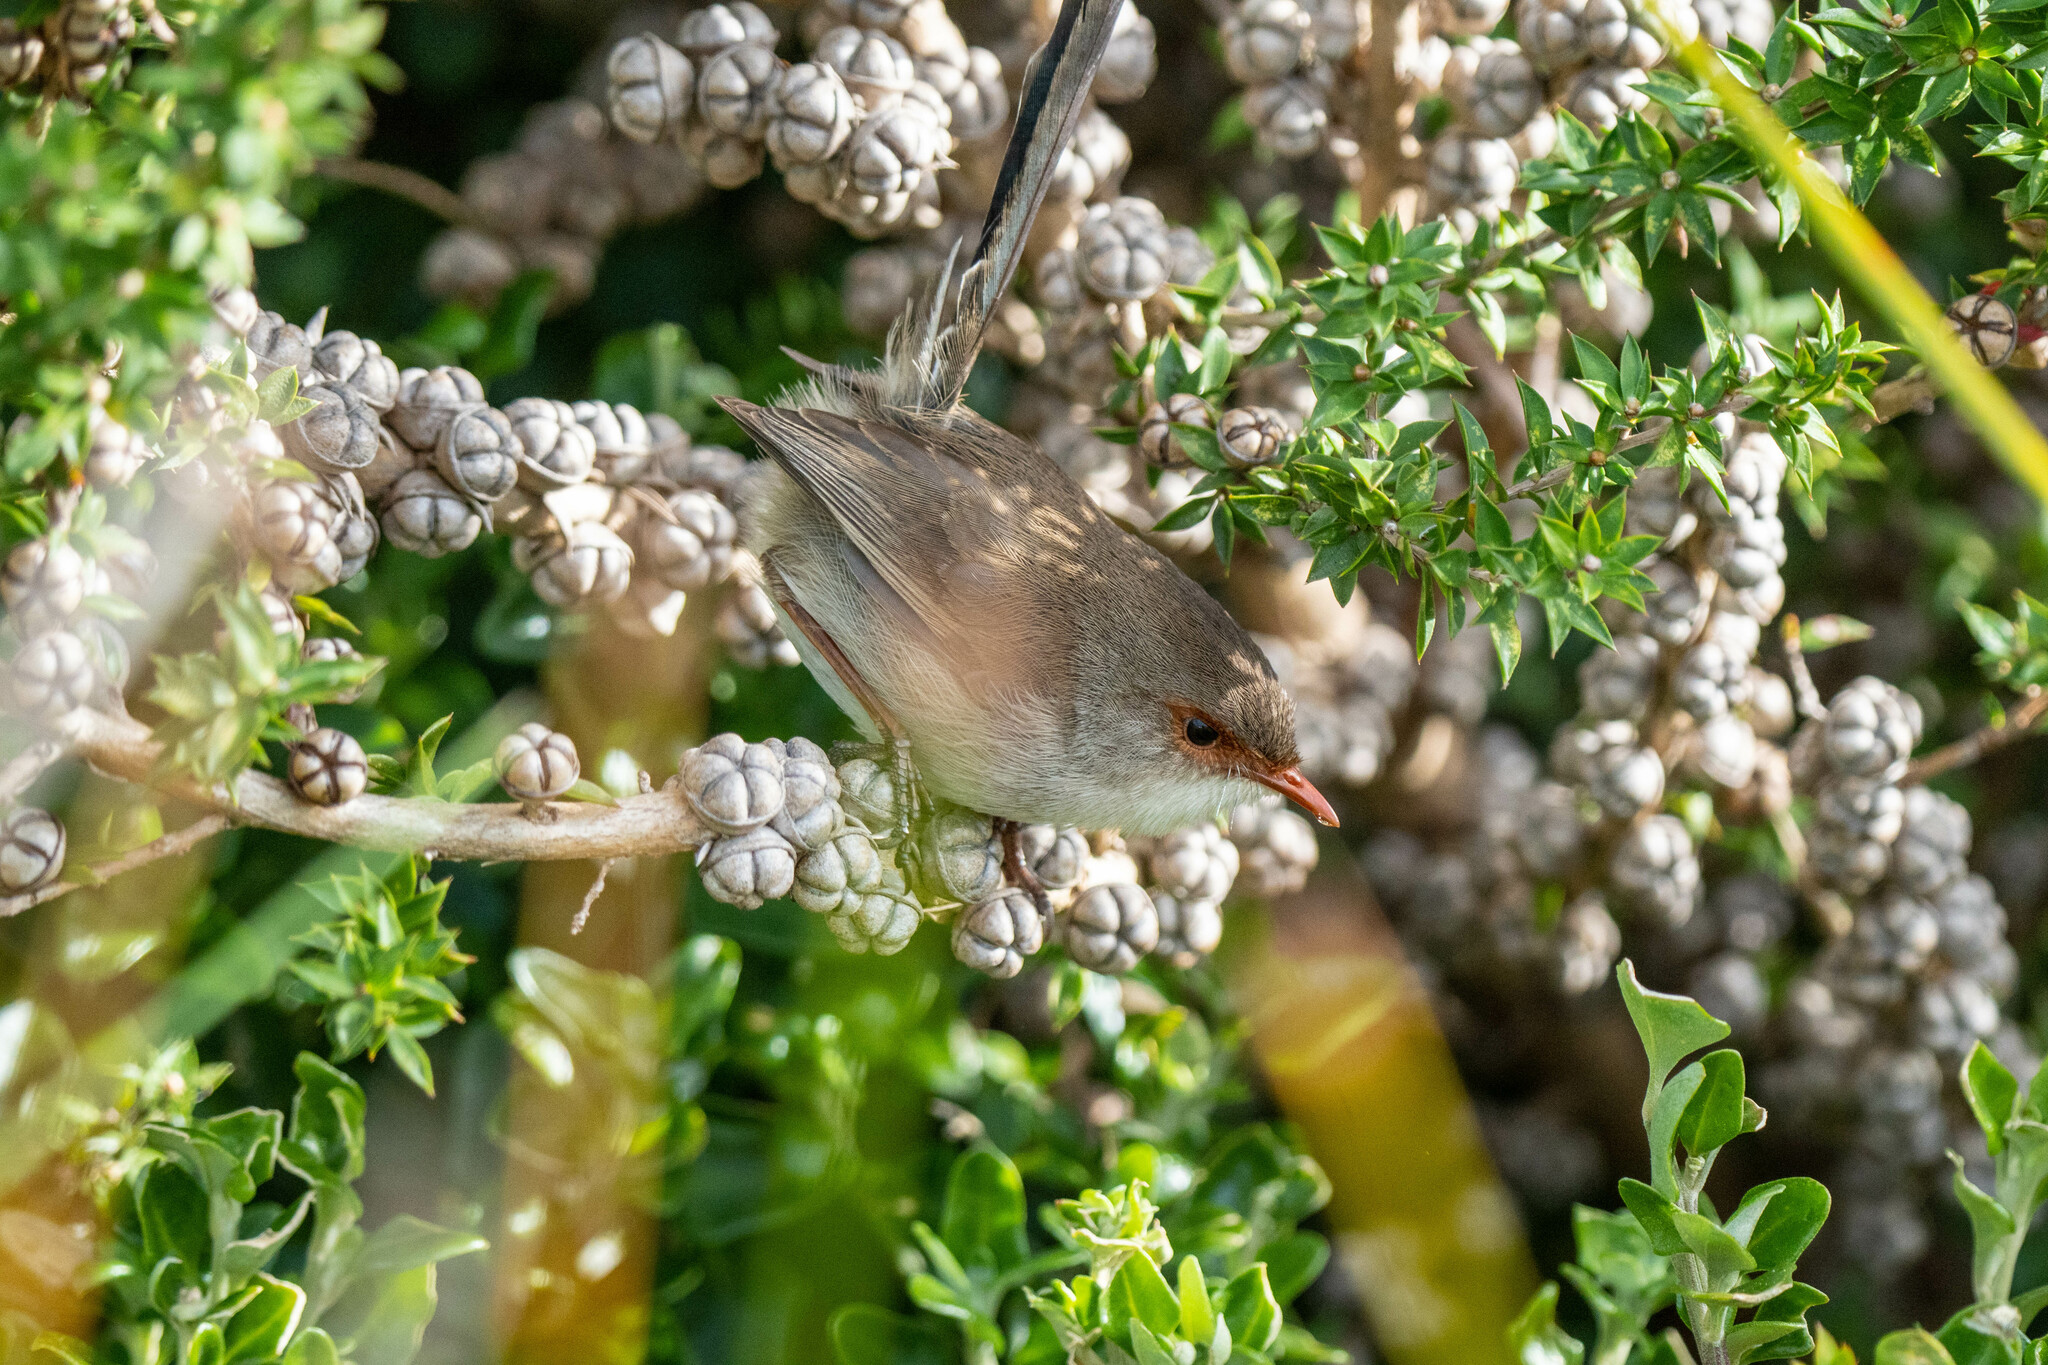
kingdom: Animalia
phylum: Chordata
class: Aves
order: Passeriformes
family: Maluridae
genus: Malurus
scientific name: Malurus cyaneus
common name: Superb fairywren
